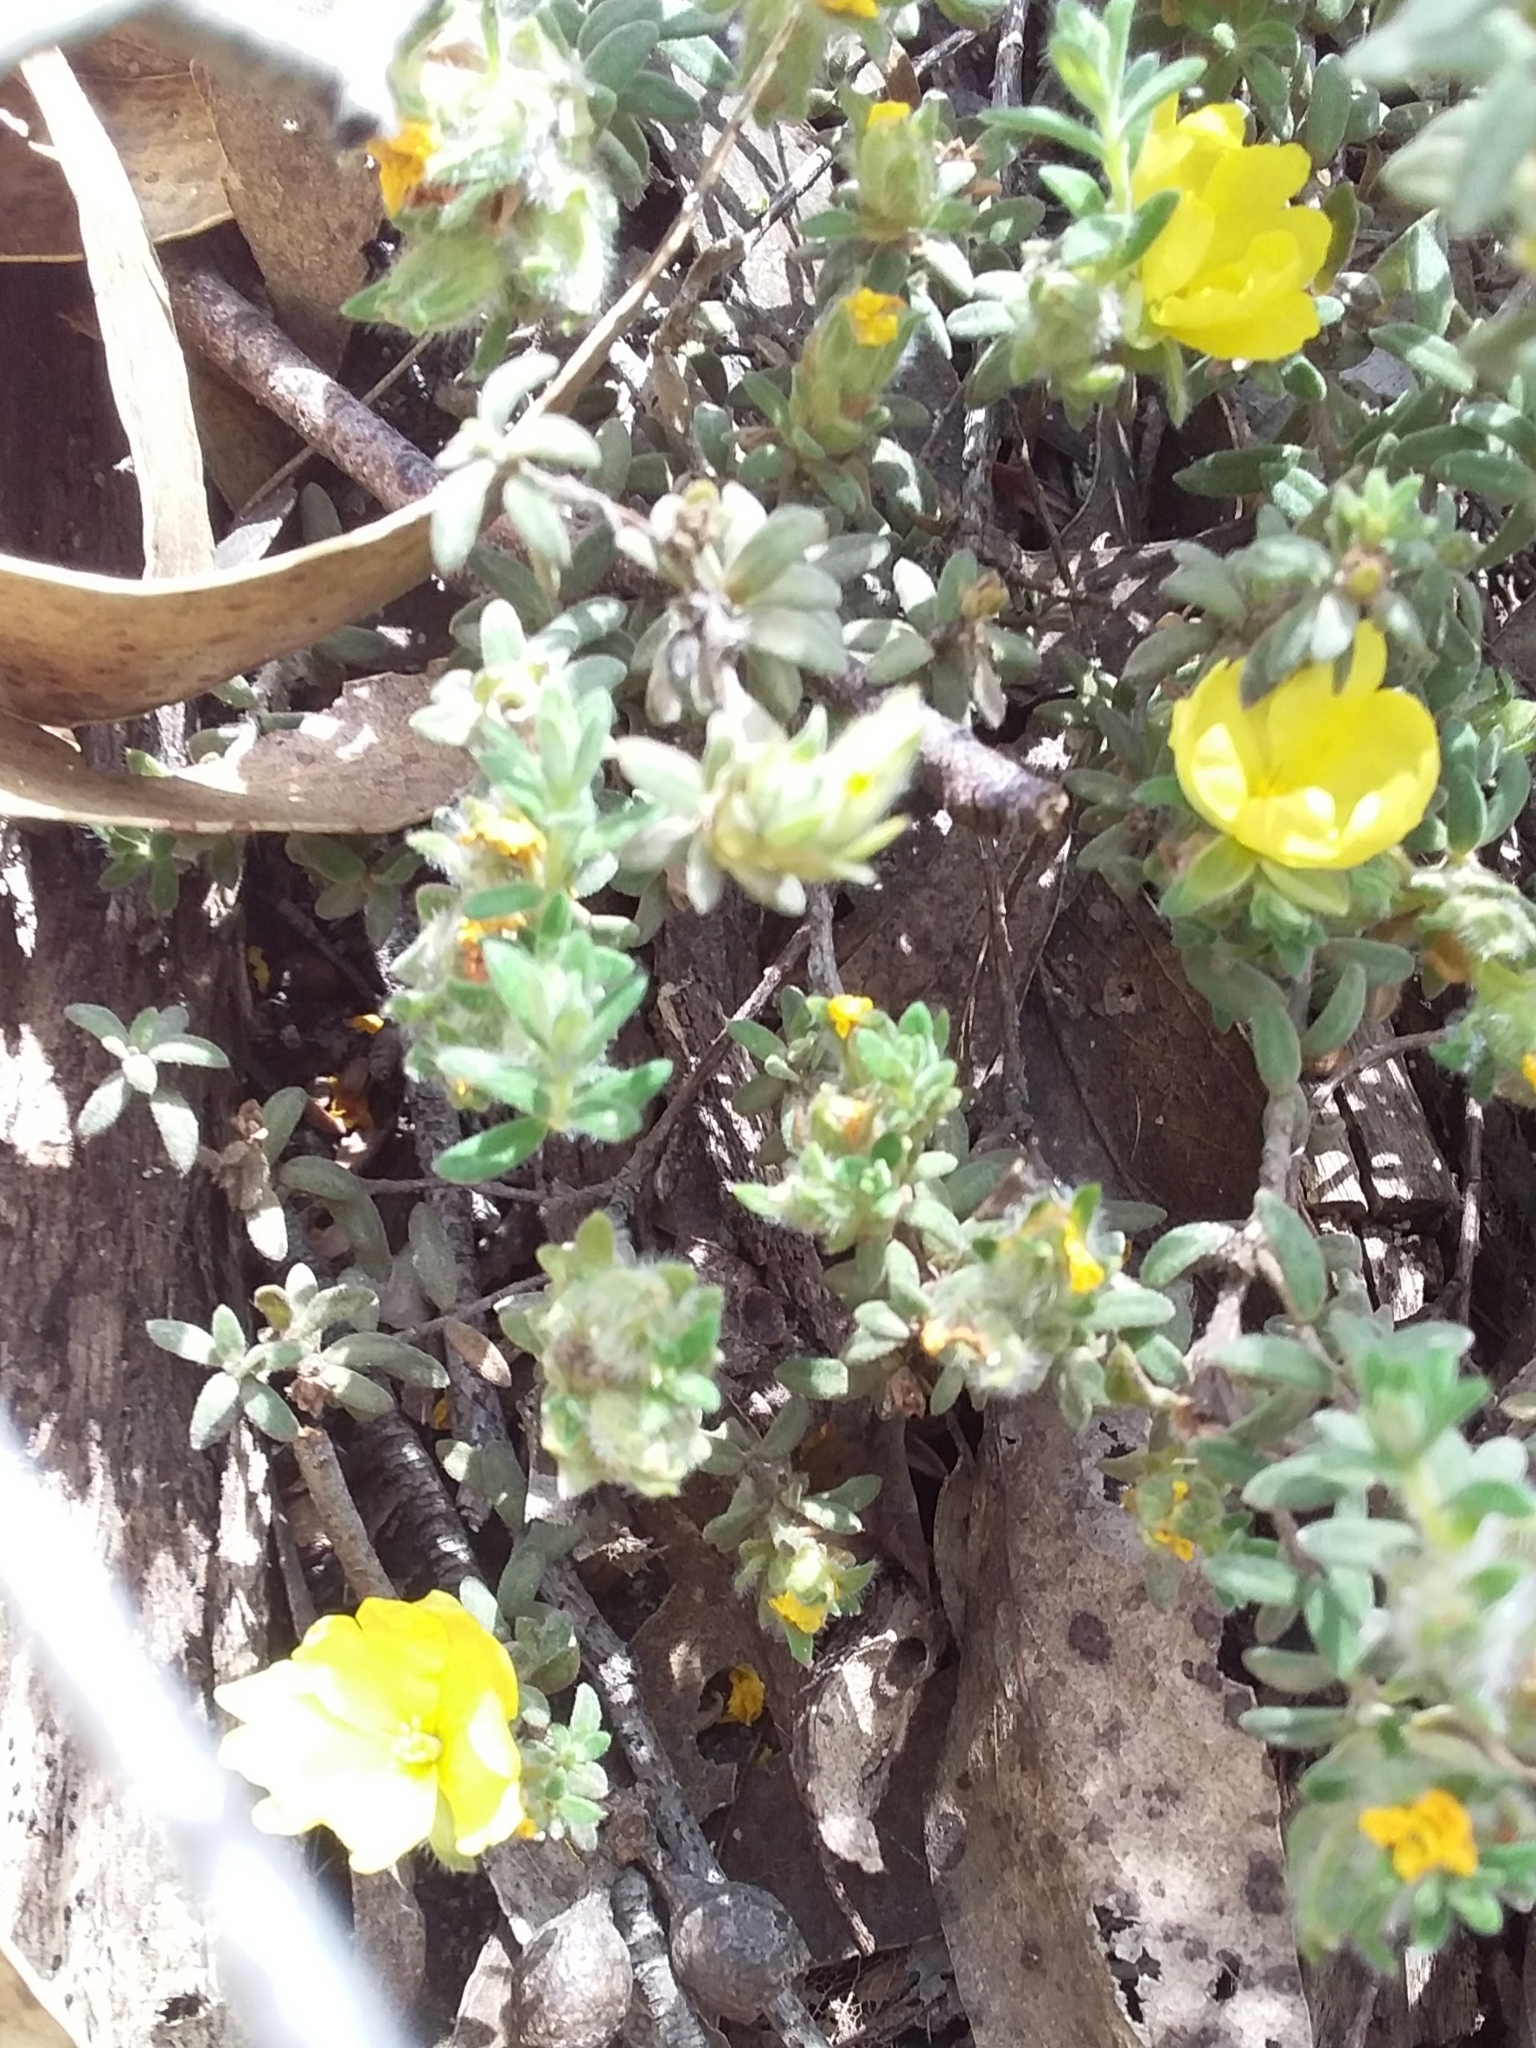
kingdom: Plantae
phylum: Tracheophyta
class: Magnoliopsida
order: Dilleniales
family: Dilleniaceae
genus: Hibbertia
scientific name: Hibbertia crinita
